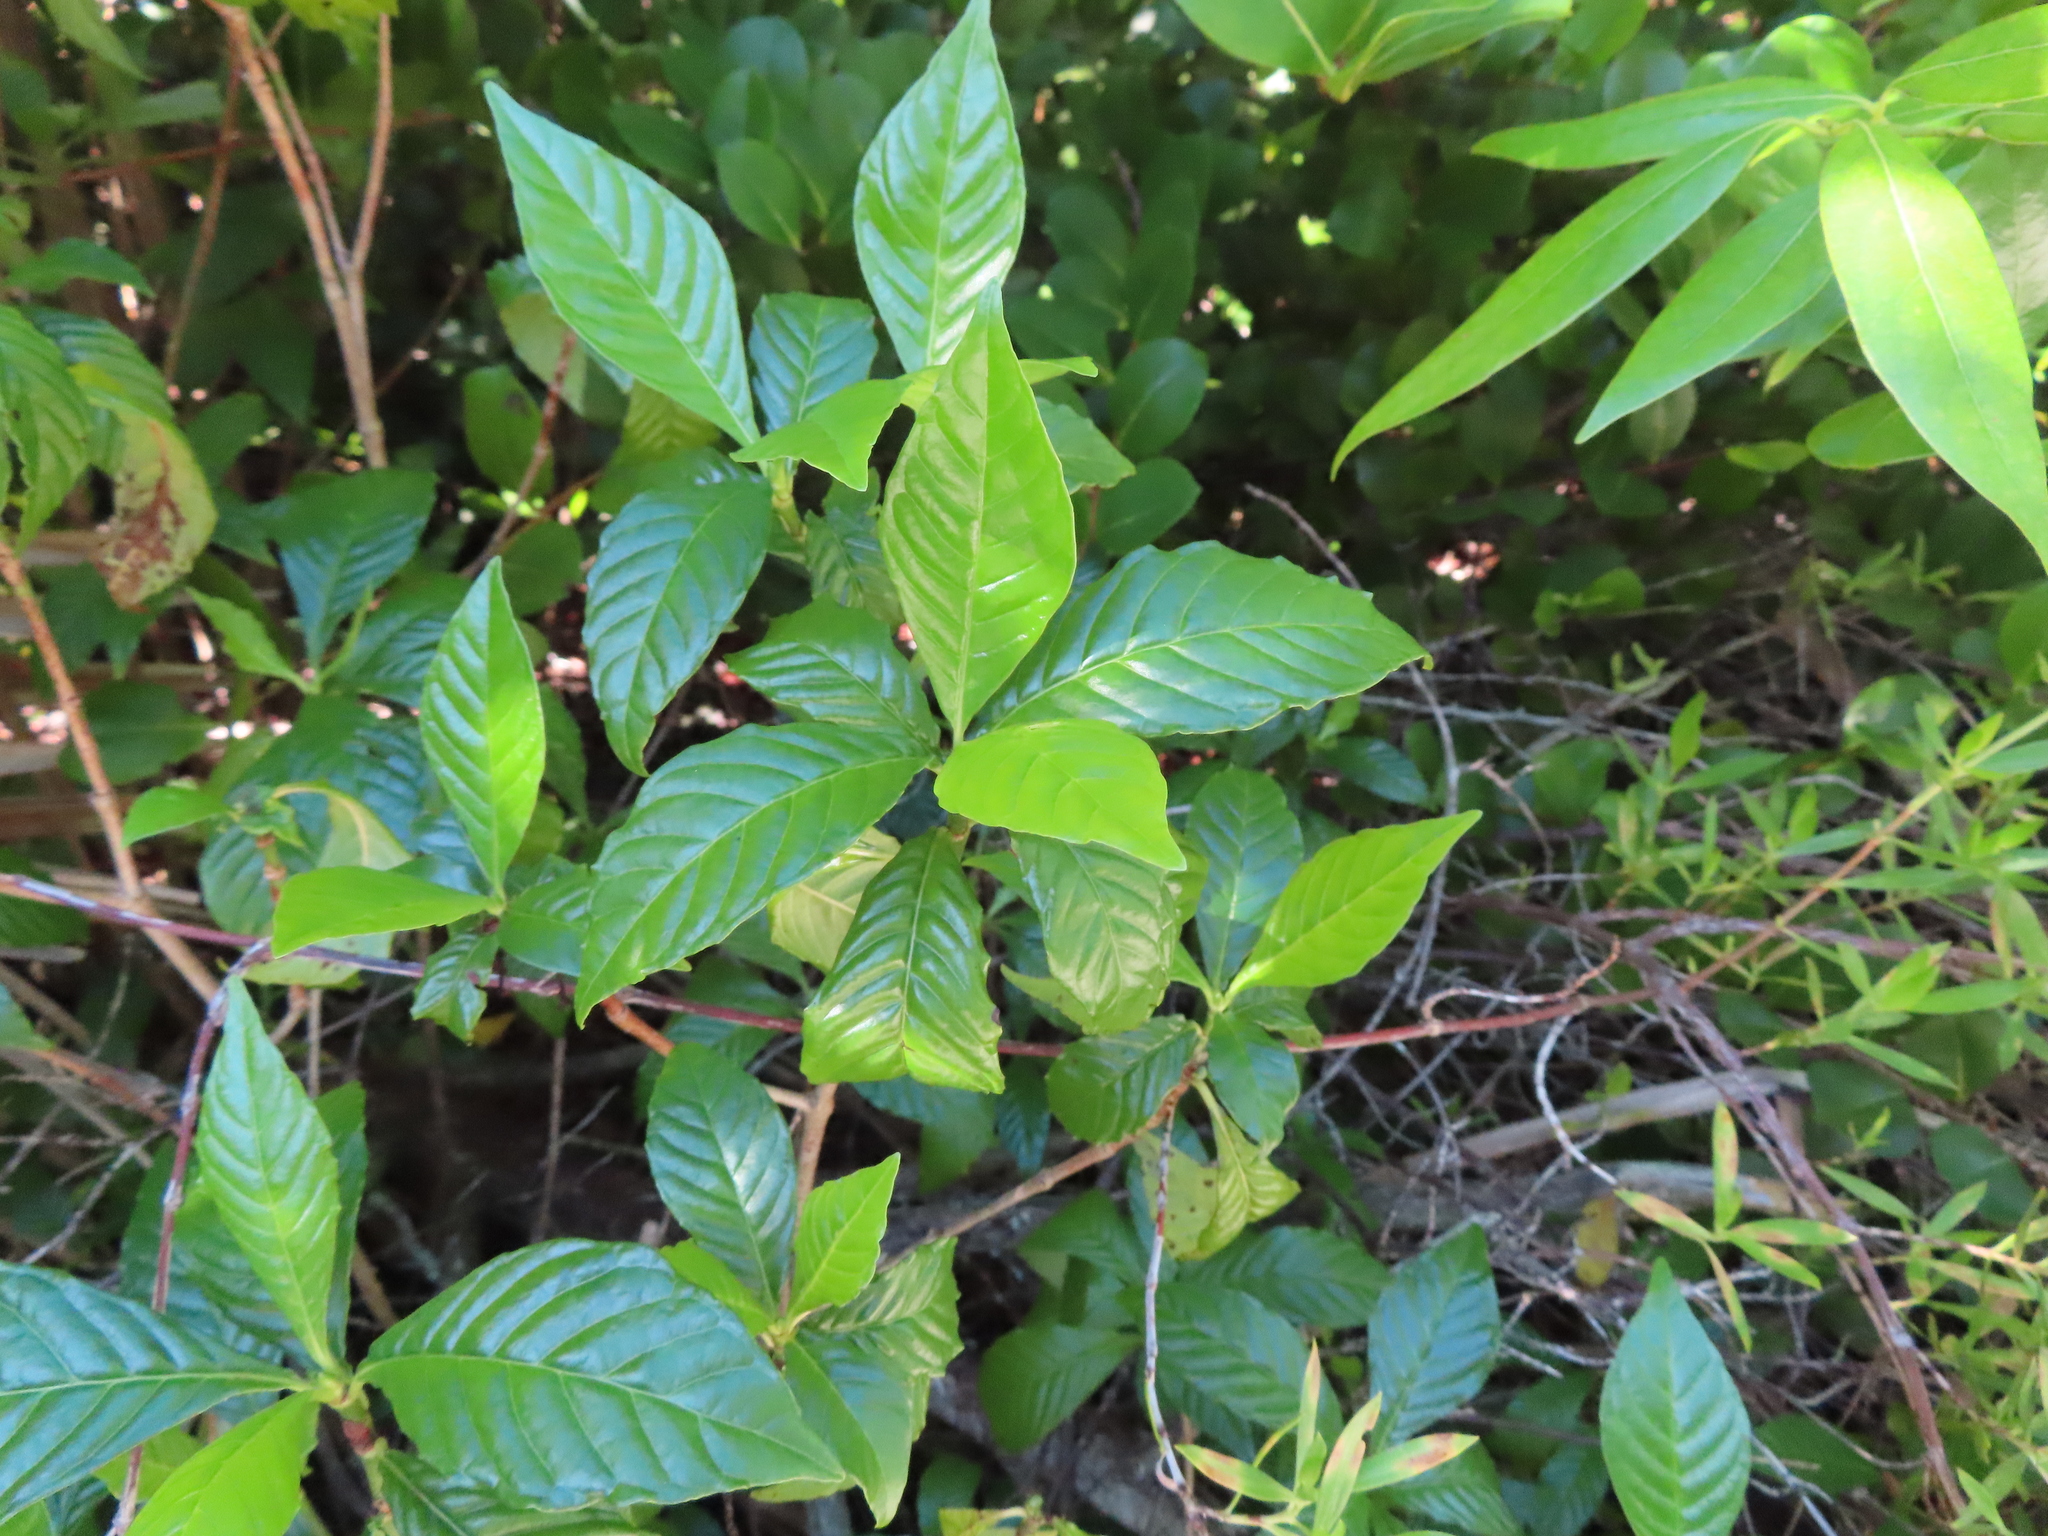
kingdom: Plantae
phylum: Tracheophyta
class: Magnoliopsida
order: Gentianales
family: Rubiaceae
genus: Psychotria
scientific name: Psychotria nervosa
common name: Bastard cankerberry
